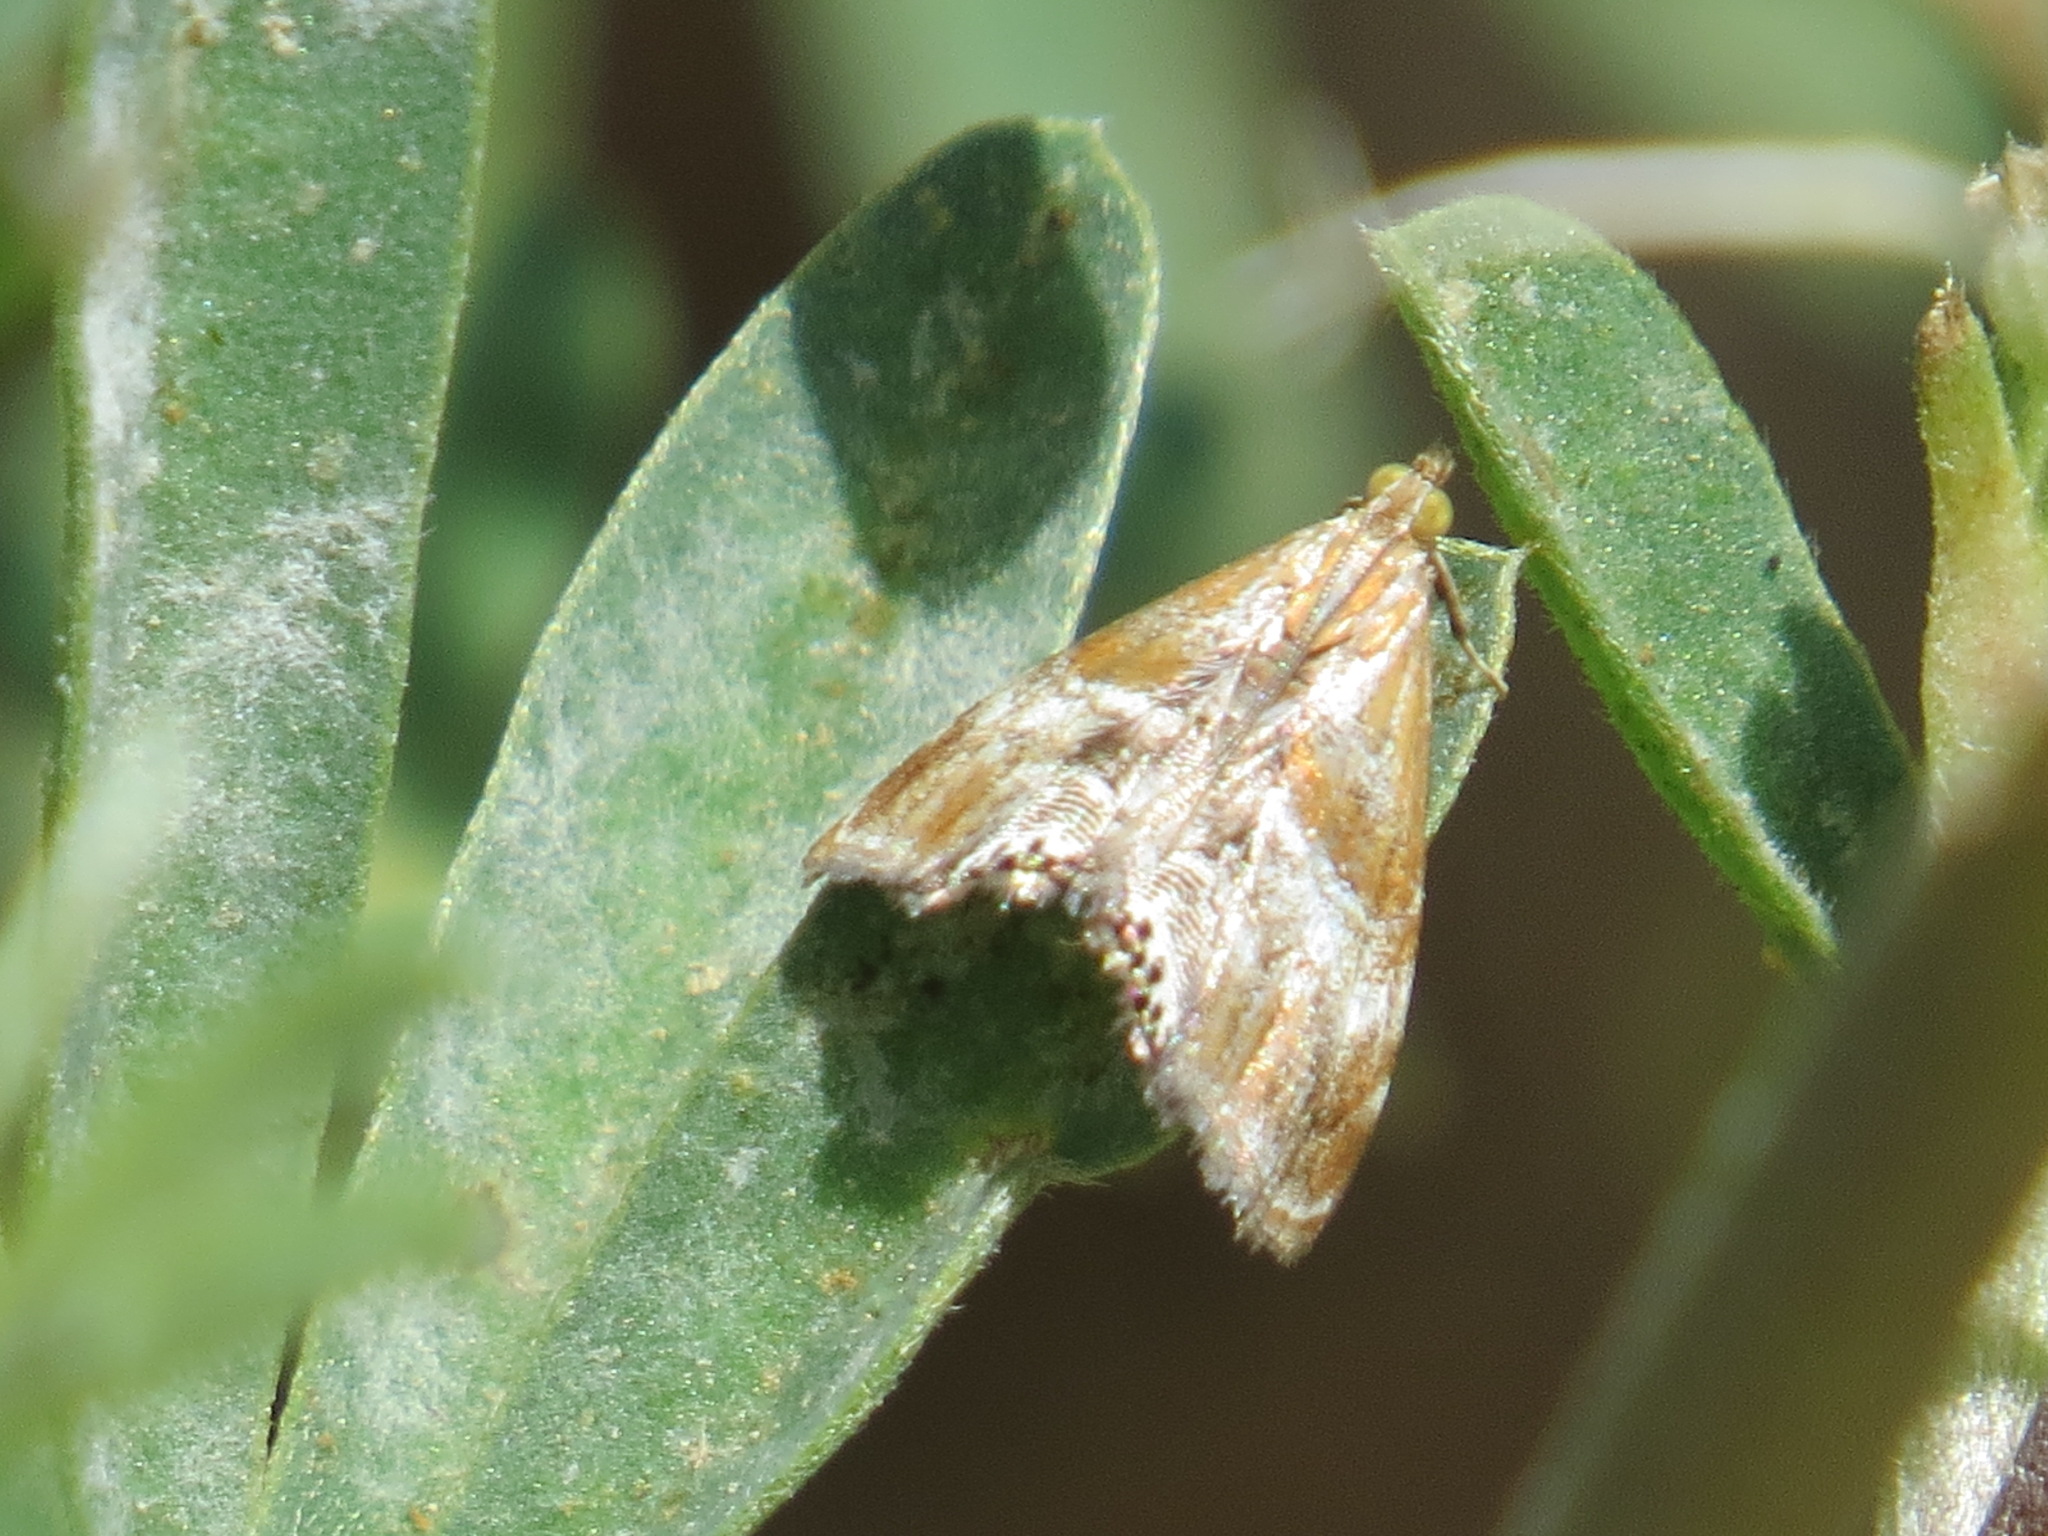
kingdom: Animalia
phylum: Arthropoda
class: Insecta
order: Lepidoptera
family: Crambidae
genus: Dicymolomia
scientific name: Dicymolomia metalliferalis
